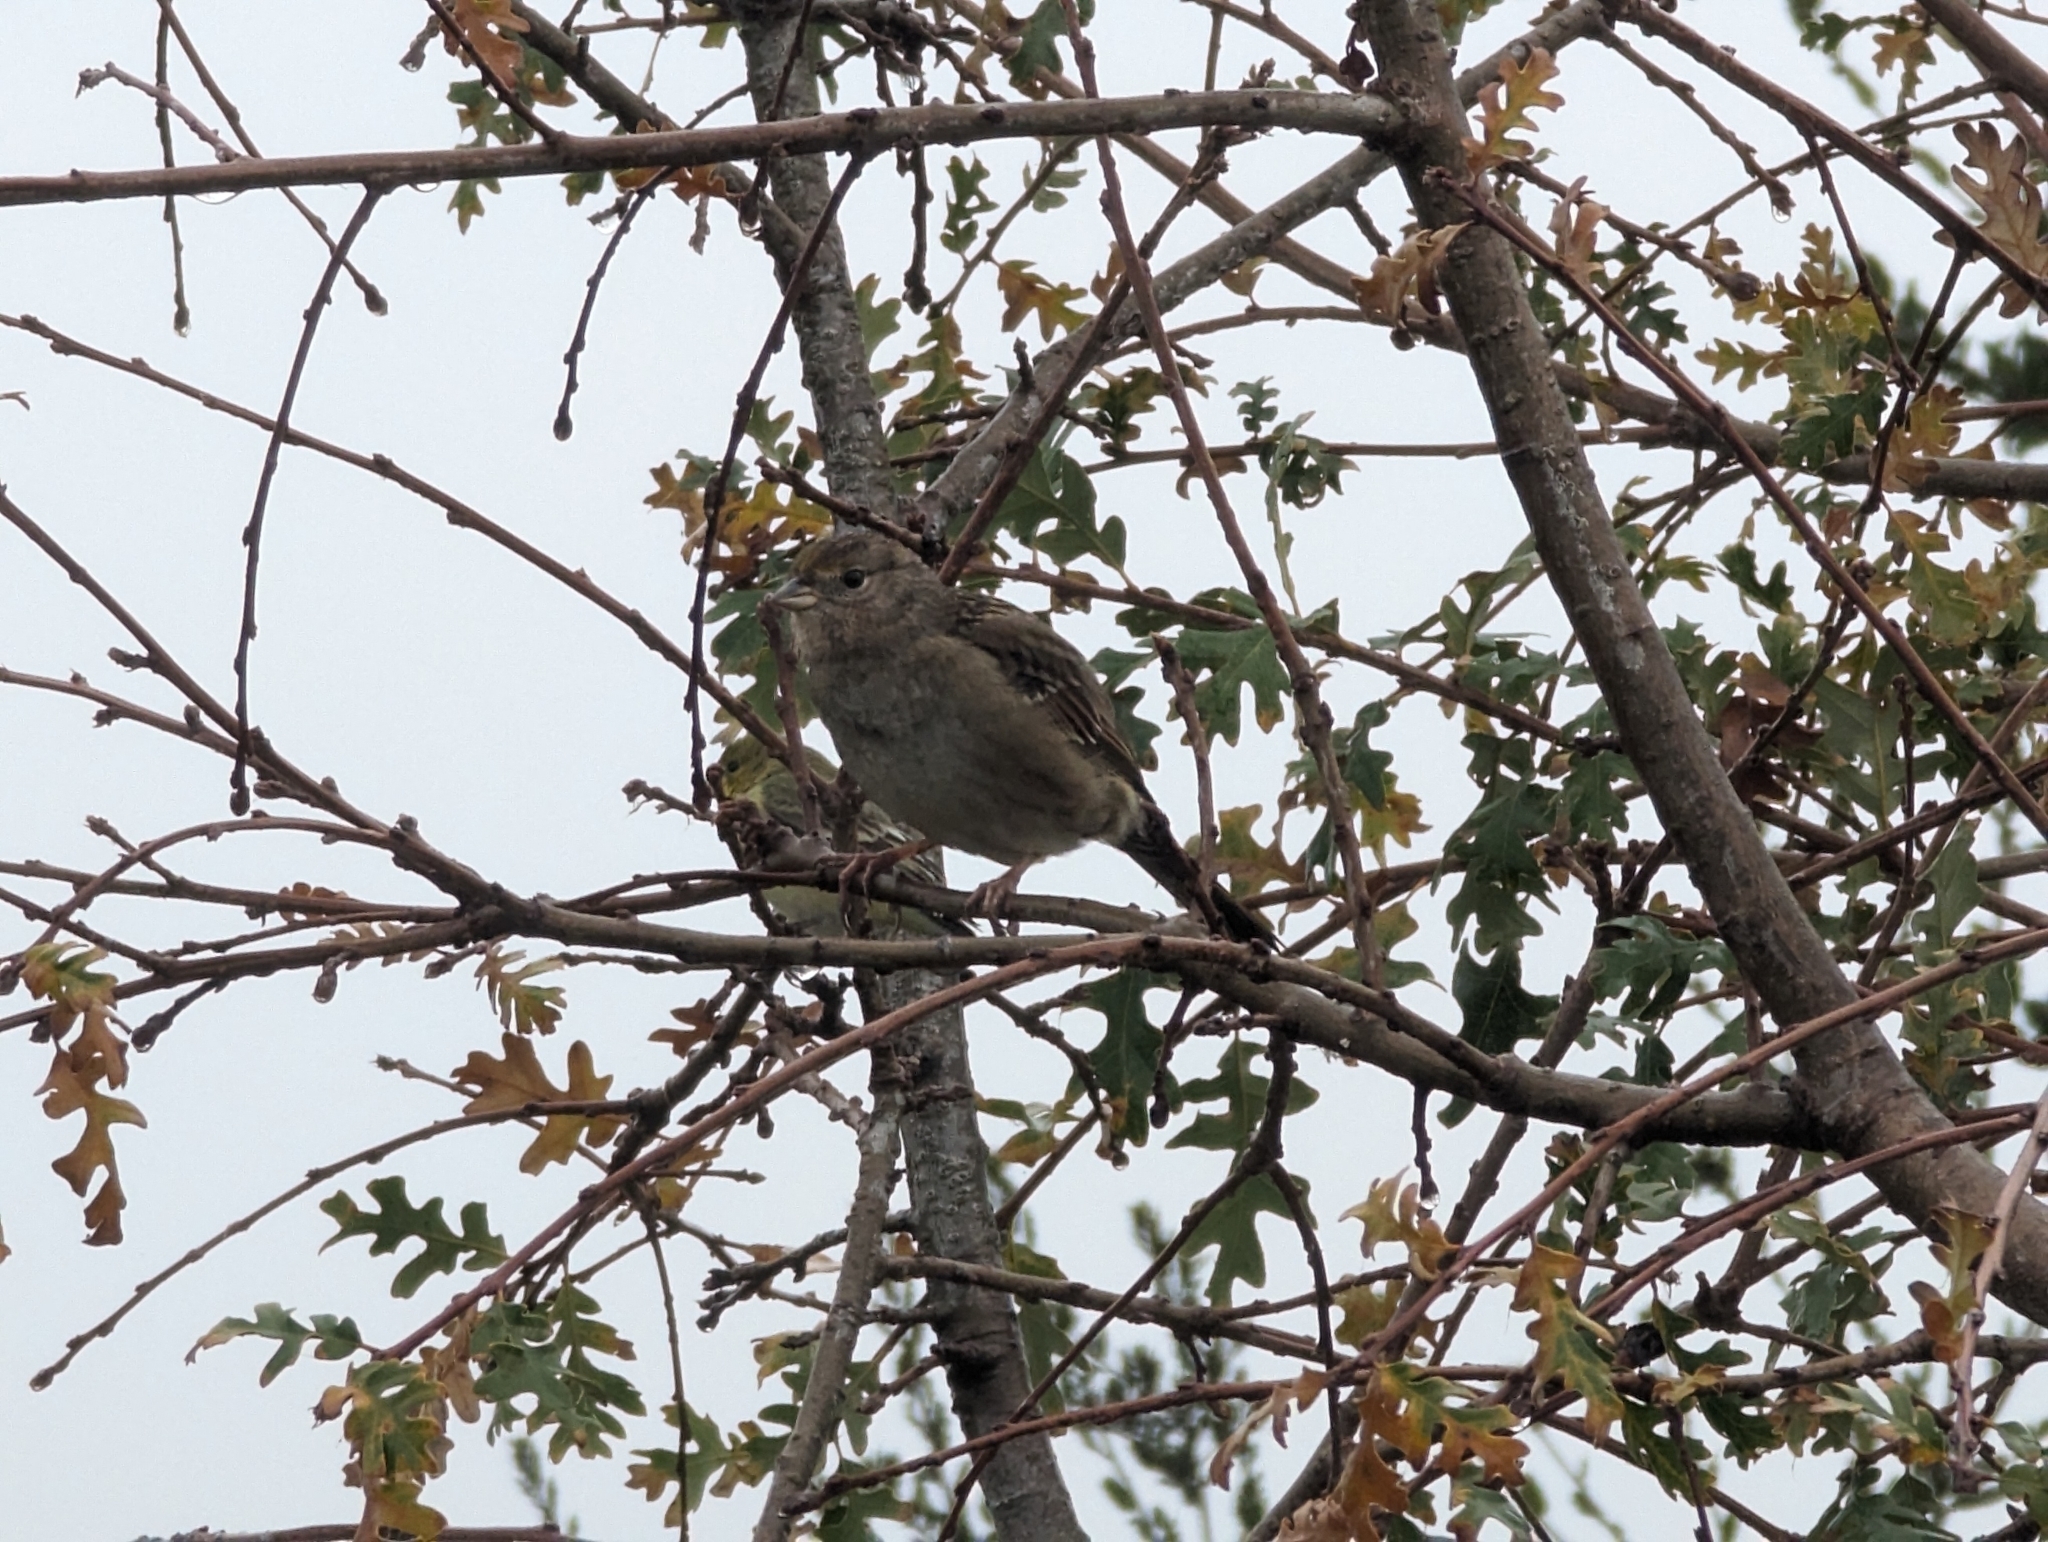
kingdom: Animalia
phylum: Chordata
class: Aves
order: Passeriformes
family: Passerellidae
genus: Zonotrichia
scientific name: Zonotrichia atricapilla
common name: Golden-crowned sparrow
